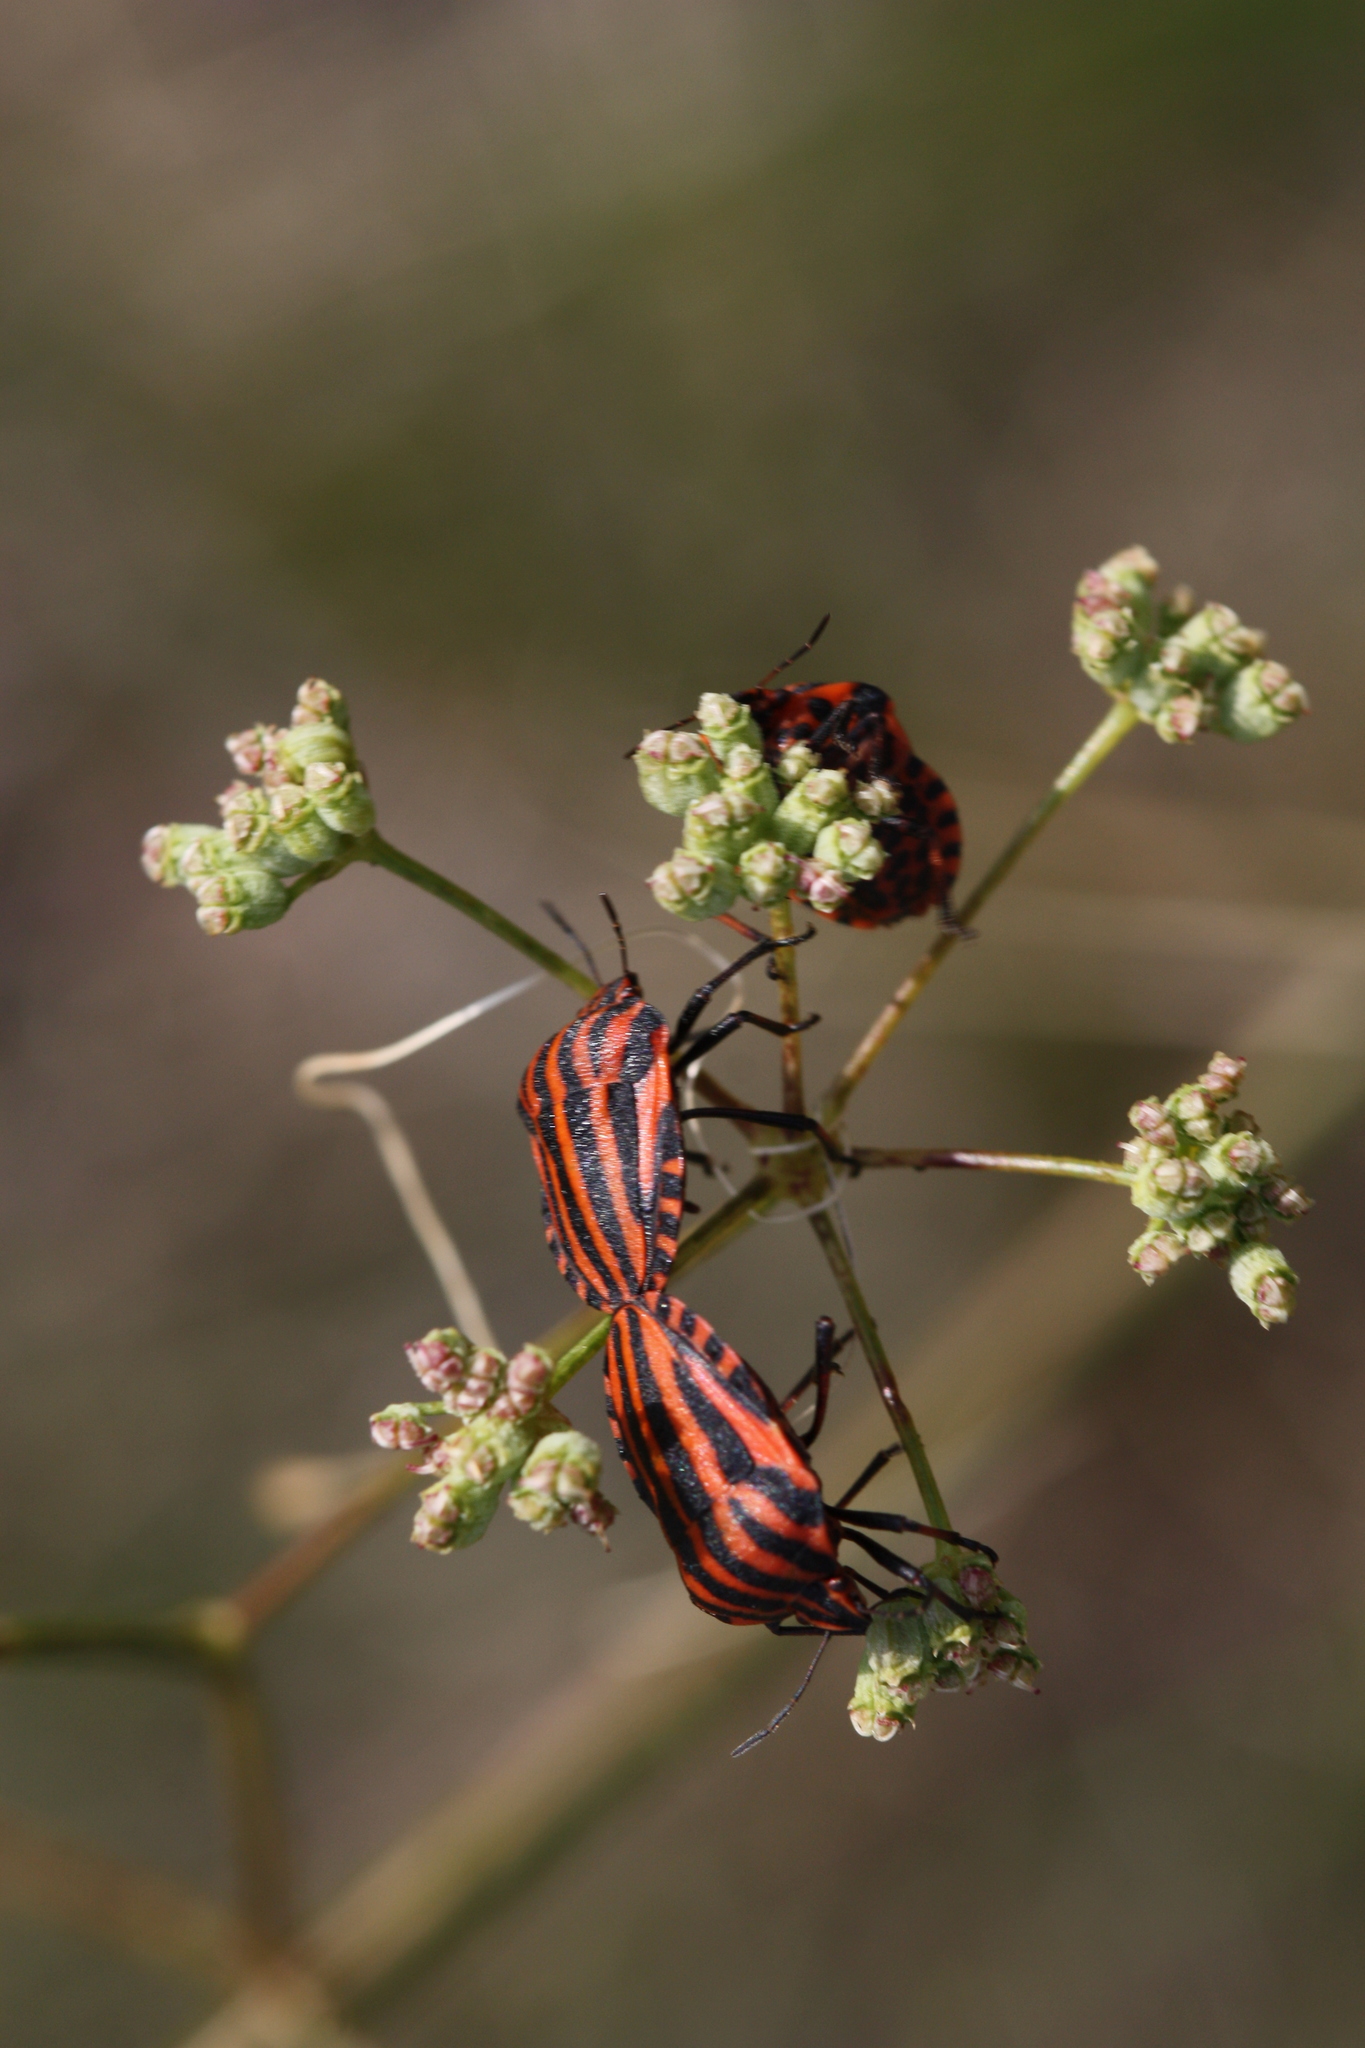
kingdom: Animalia
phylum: Arthropoda
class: Insecta
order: Hemiptera
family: Pentatomidae
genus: Graphosoma
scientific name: Graphosoma italicum
